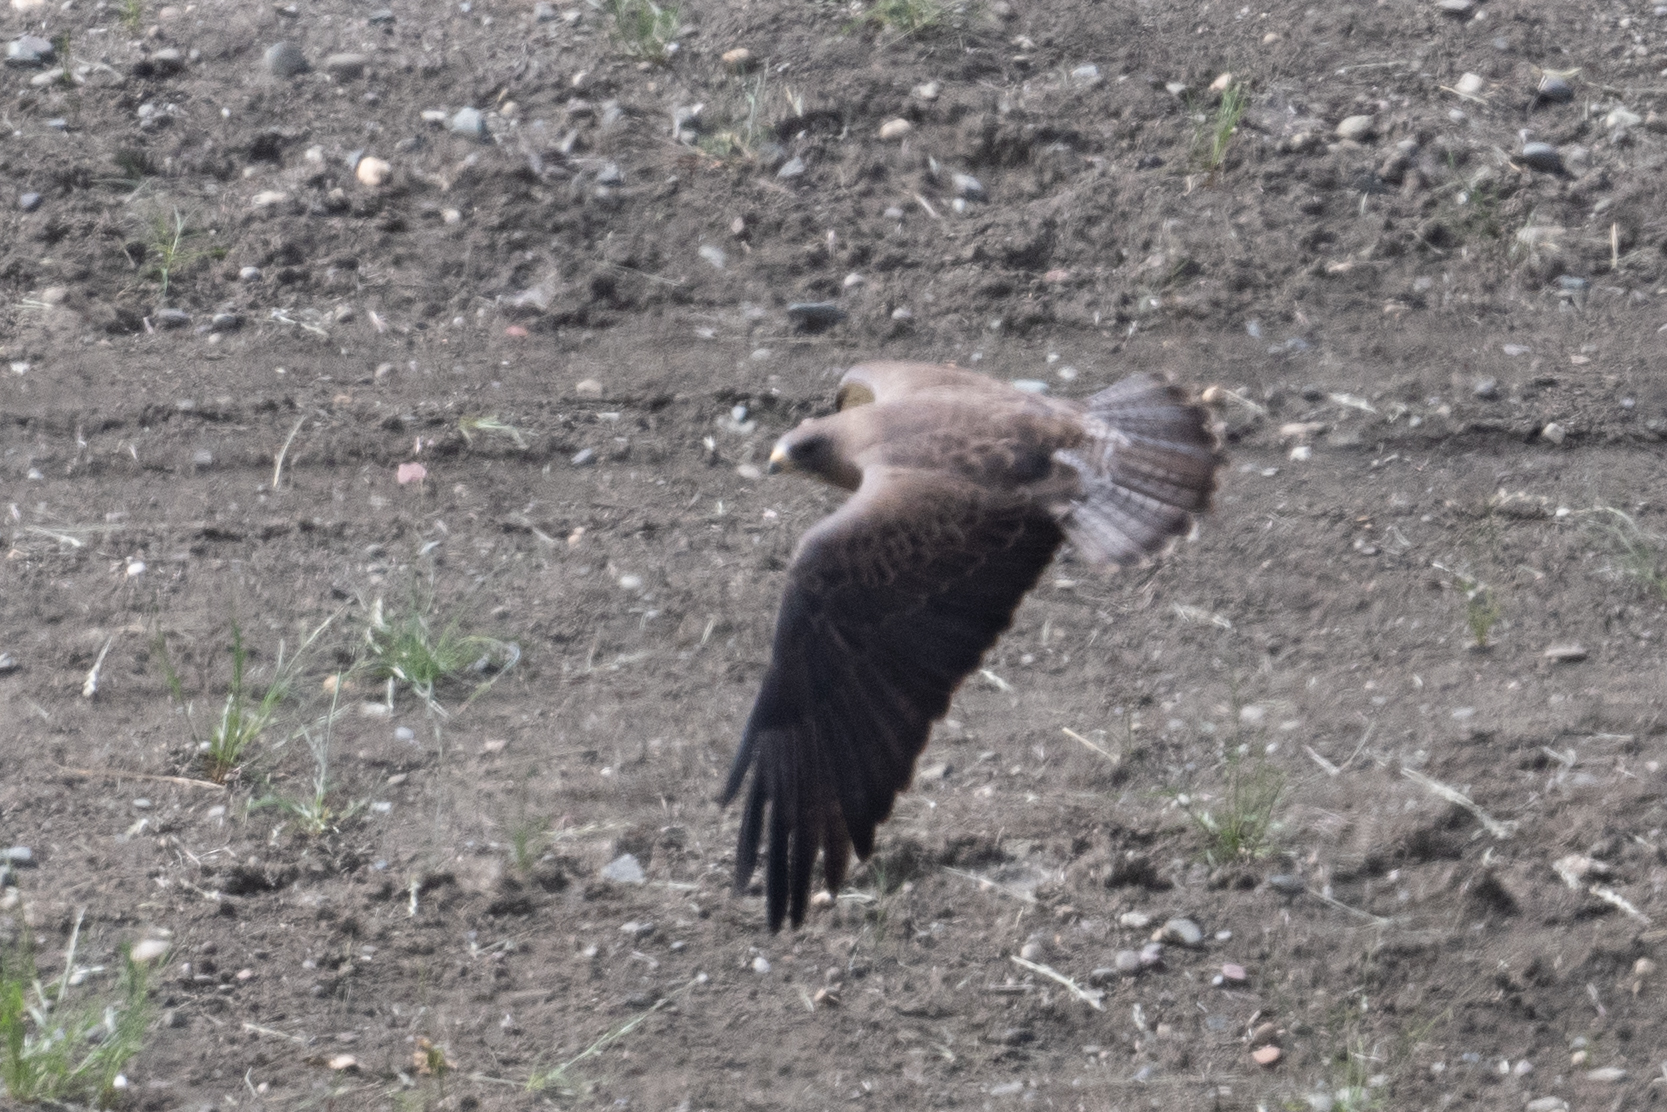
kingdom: Animalia
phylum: Chordata
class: Aves
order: Accipitriformes
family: Accipitridae
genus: Buteo
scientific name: Buteo swainsoni
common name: Swainson's hawk
